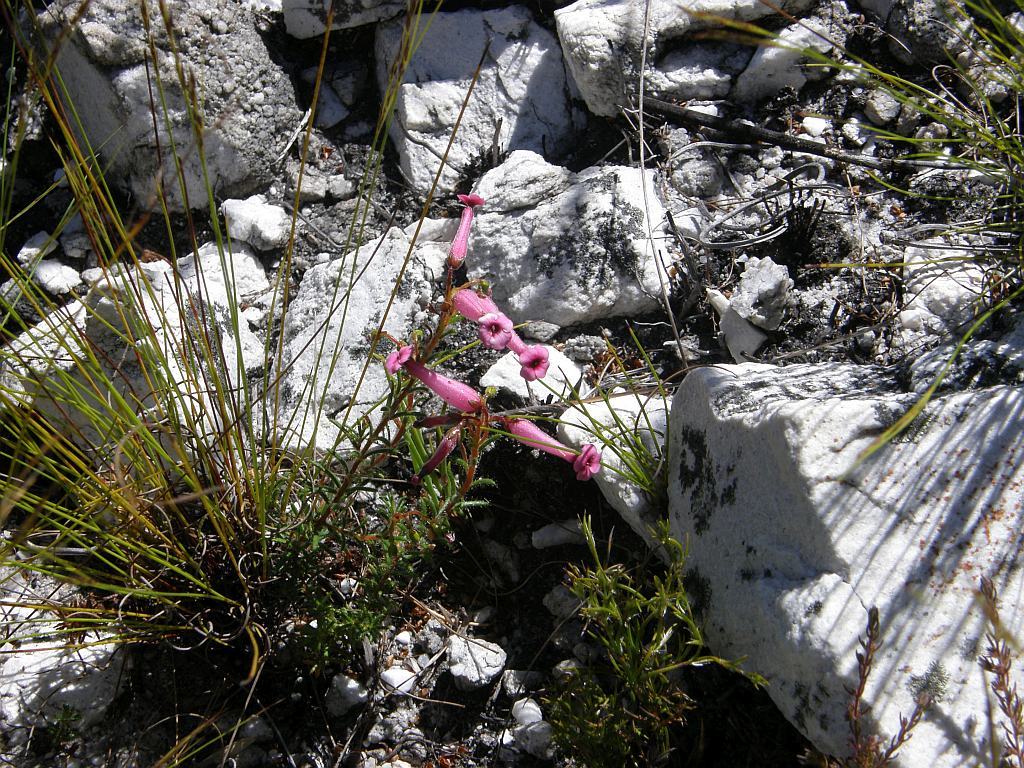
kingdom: Plantae
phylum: Tracheophyta
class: Magnoliopsida
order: Ericales
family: Ericaceae
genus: Erica
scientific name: Erica rufescens
